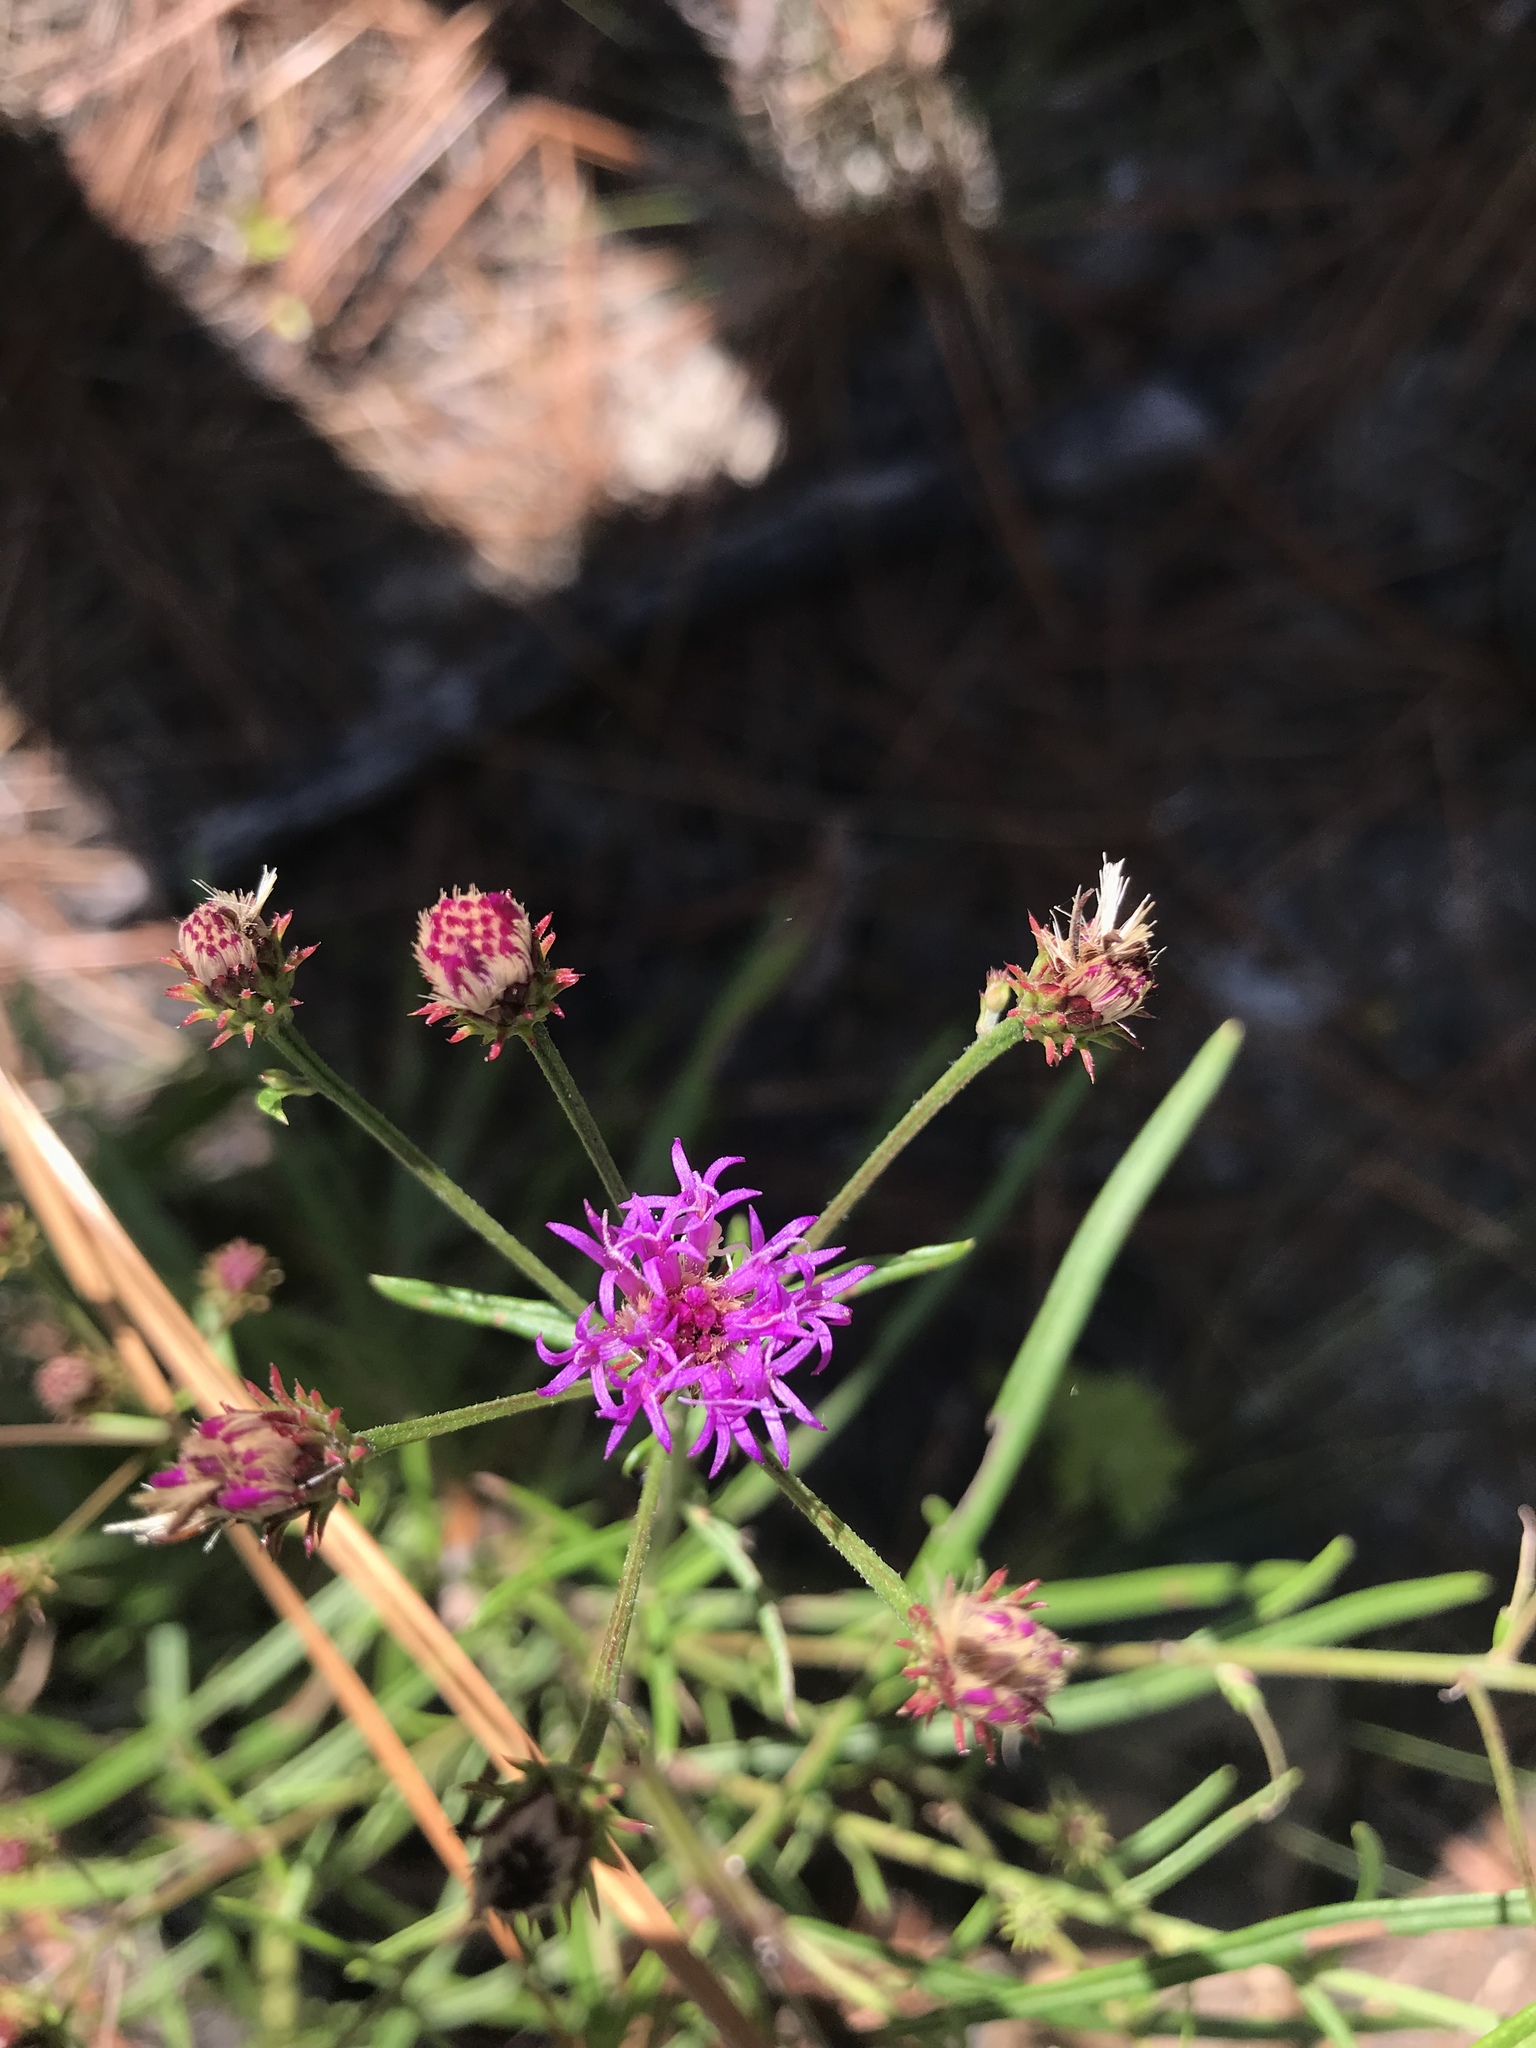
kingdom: Plantae
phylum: Tracheophyta
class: Magnoliopsida
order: Asterales
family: Asteraceae
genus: Vernonia
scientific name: Vernonia angustifolia
